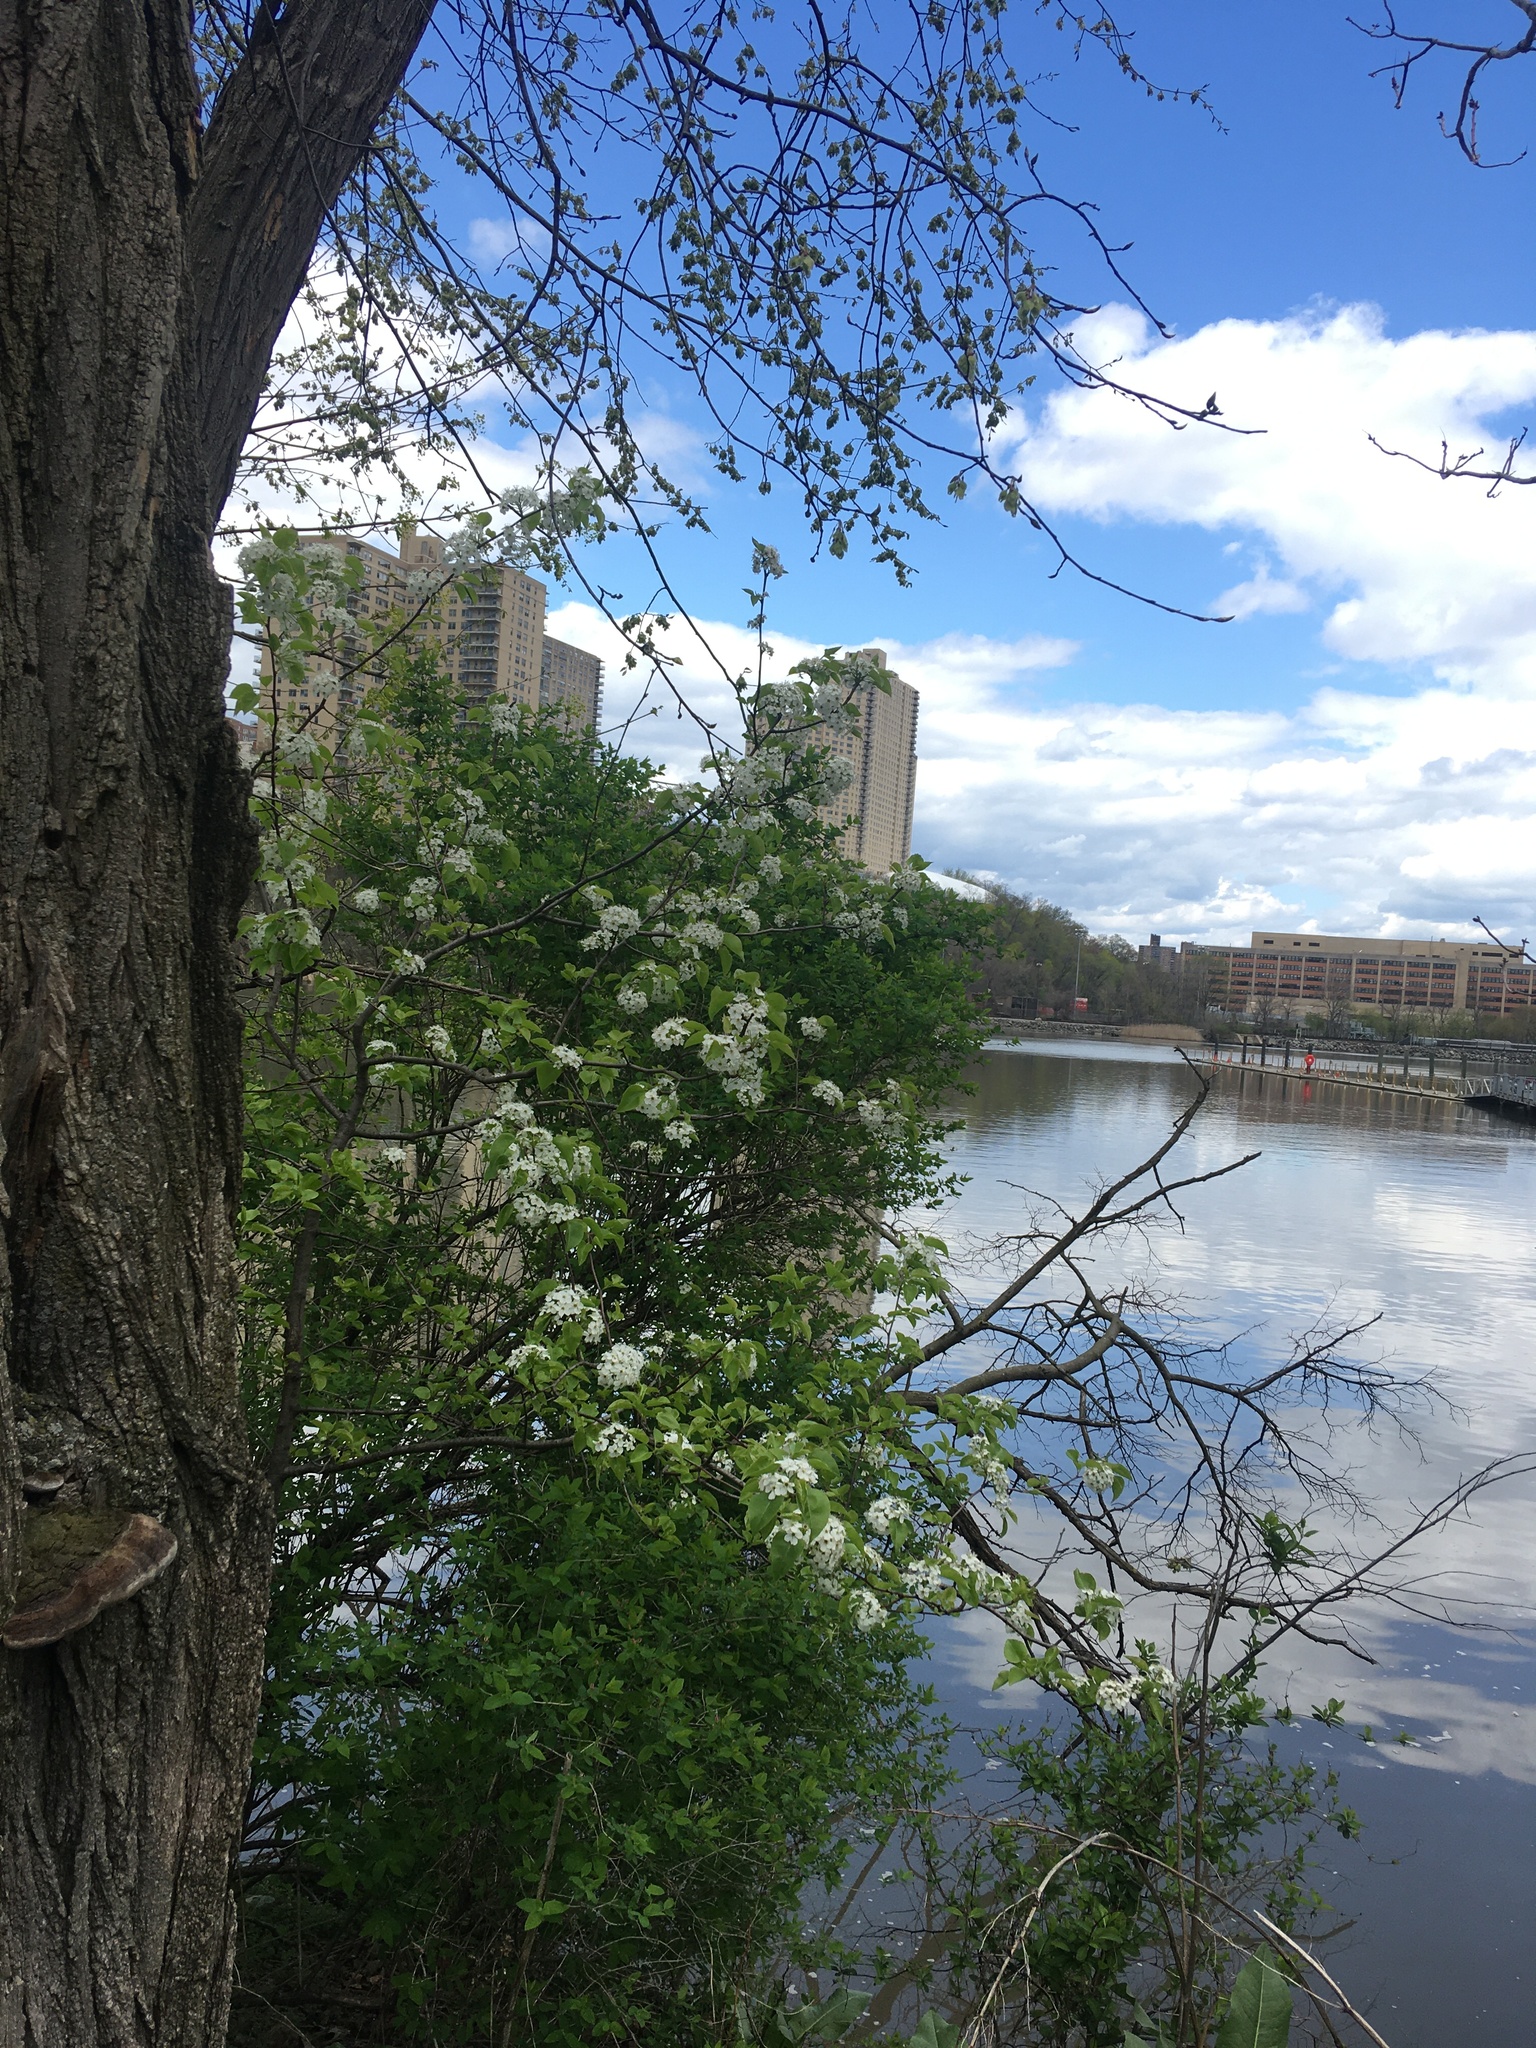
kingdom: Plantae
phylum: Tracheophyta
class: Magnoliopsida
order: Rosales
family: Rosaceae
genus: Pyrus
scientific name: Pyrus calleryana
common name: Callery pear
